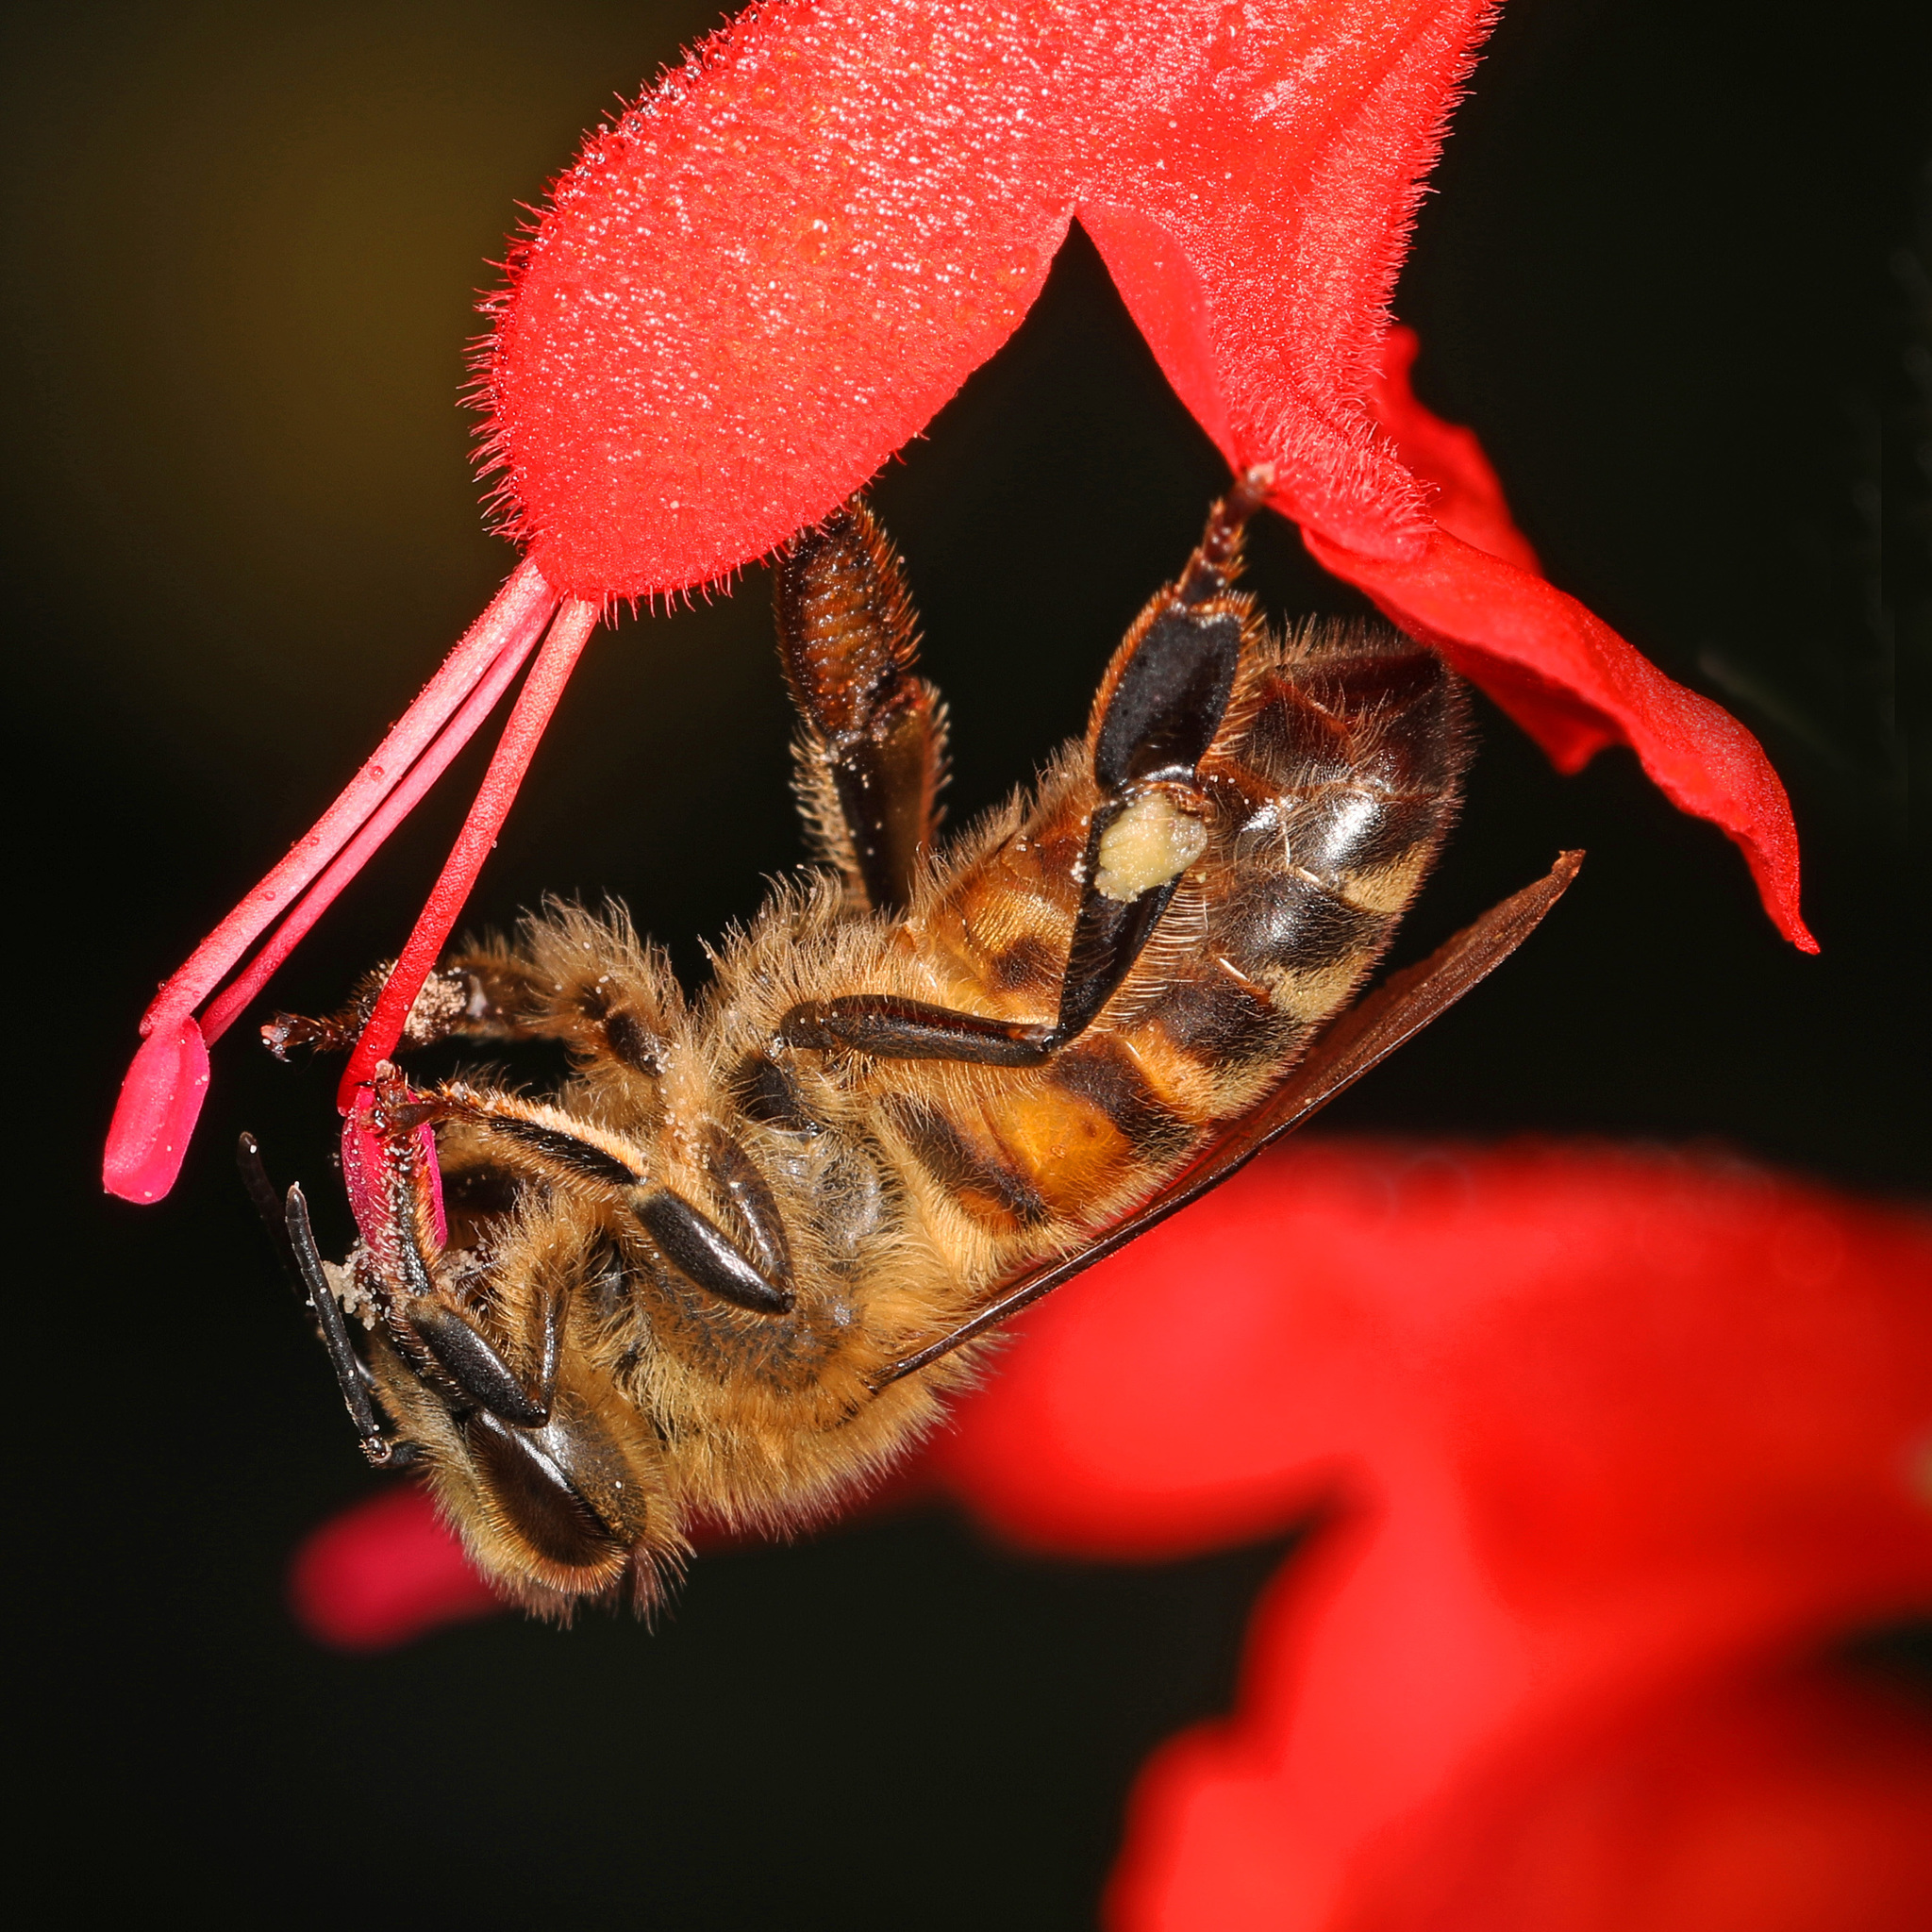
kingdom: Animalia
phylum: Arthropoda
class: Insecta
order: Hymenoptera
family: Apidae
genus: Apis
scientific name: Apis mellifera
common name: Honey bee
